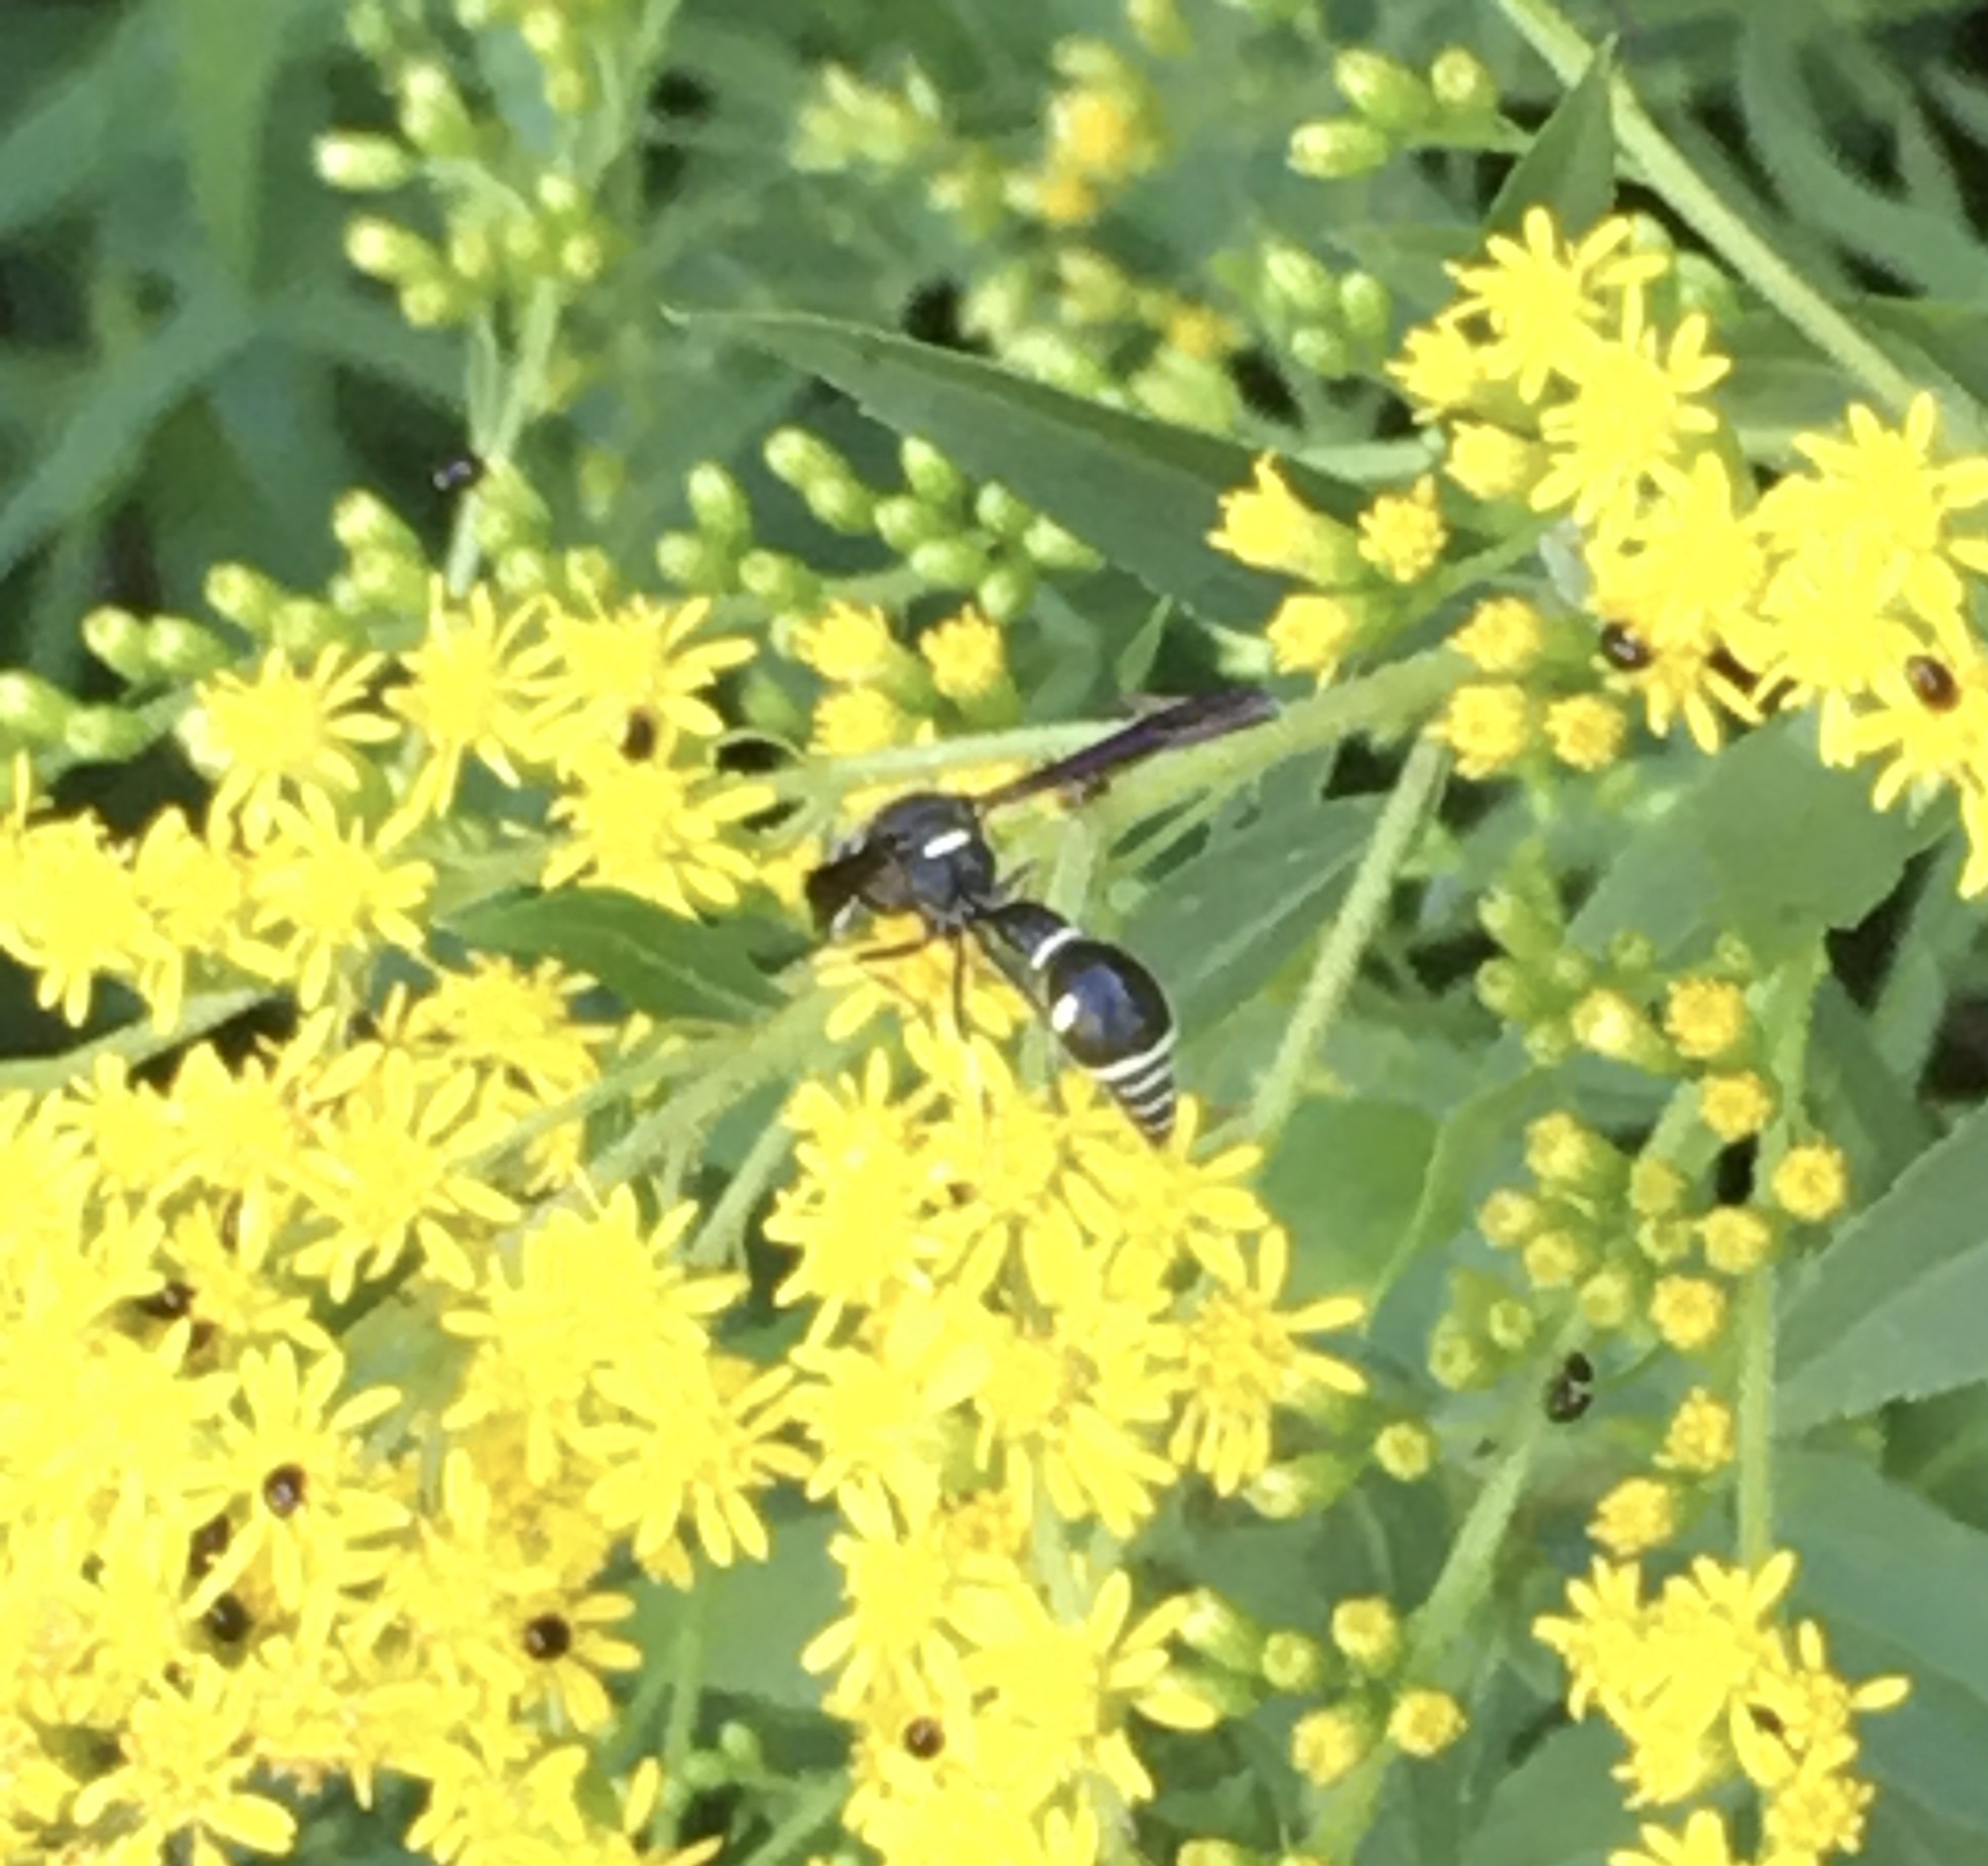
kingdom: Animalia
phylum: Arthropoda
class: Insecta
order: Hymenoptera
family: Vespidae
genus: Eumenes
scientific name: Eumenes fraternus
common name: Fraternal potter wasp
